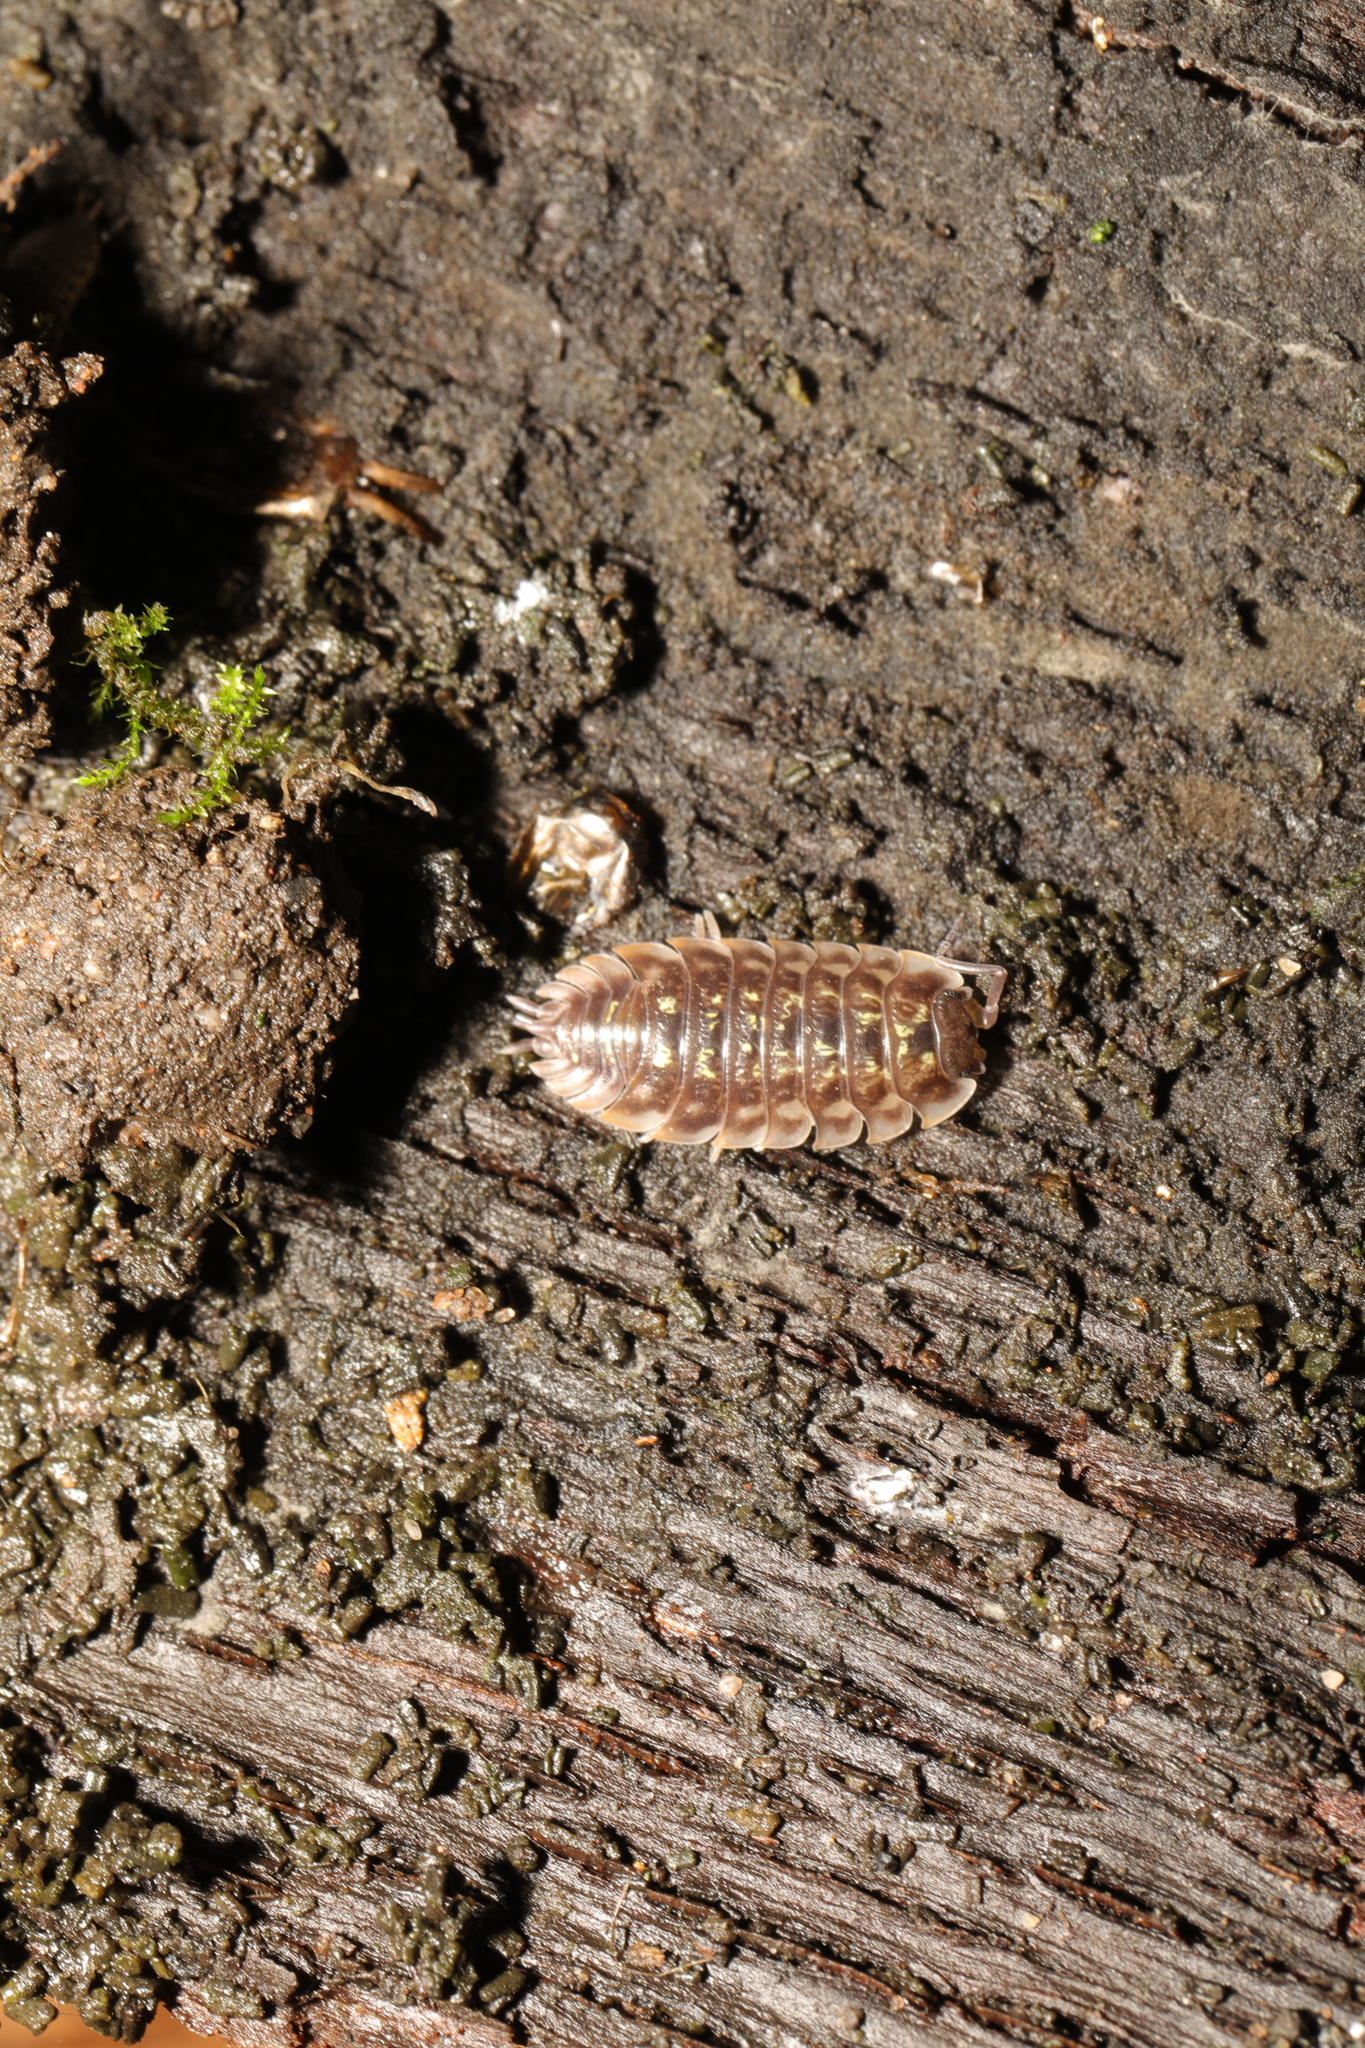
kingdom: Animalia
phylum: Arthropoda
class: Malacostraca
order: Isopoda
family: Oniscidae
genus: Oniscus
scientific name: Oniscus asellus
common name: Common shiny woodlouse
